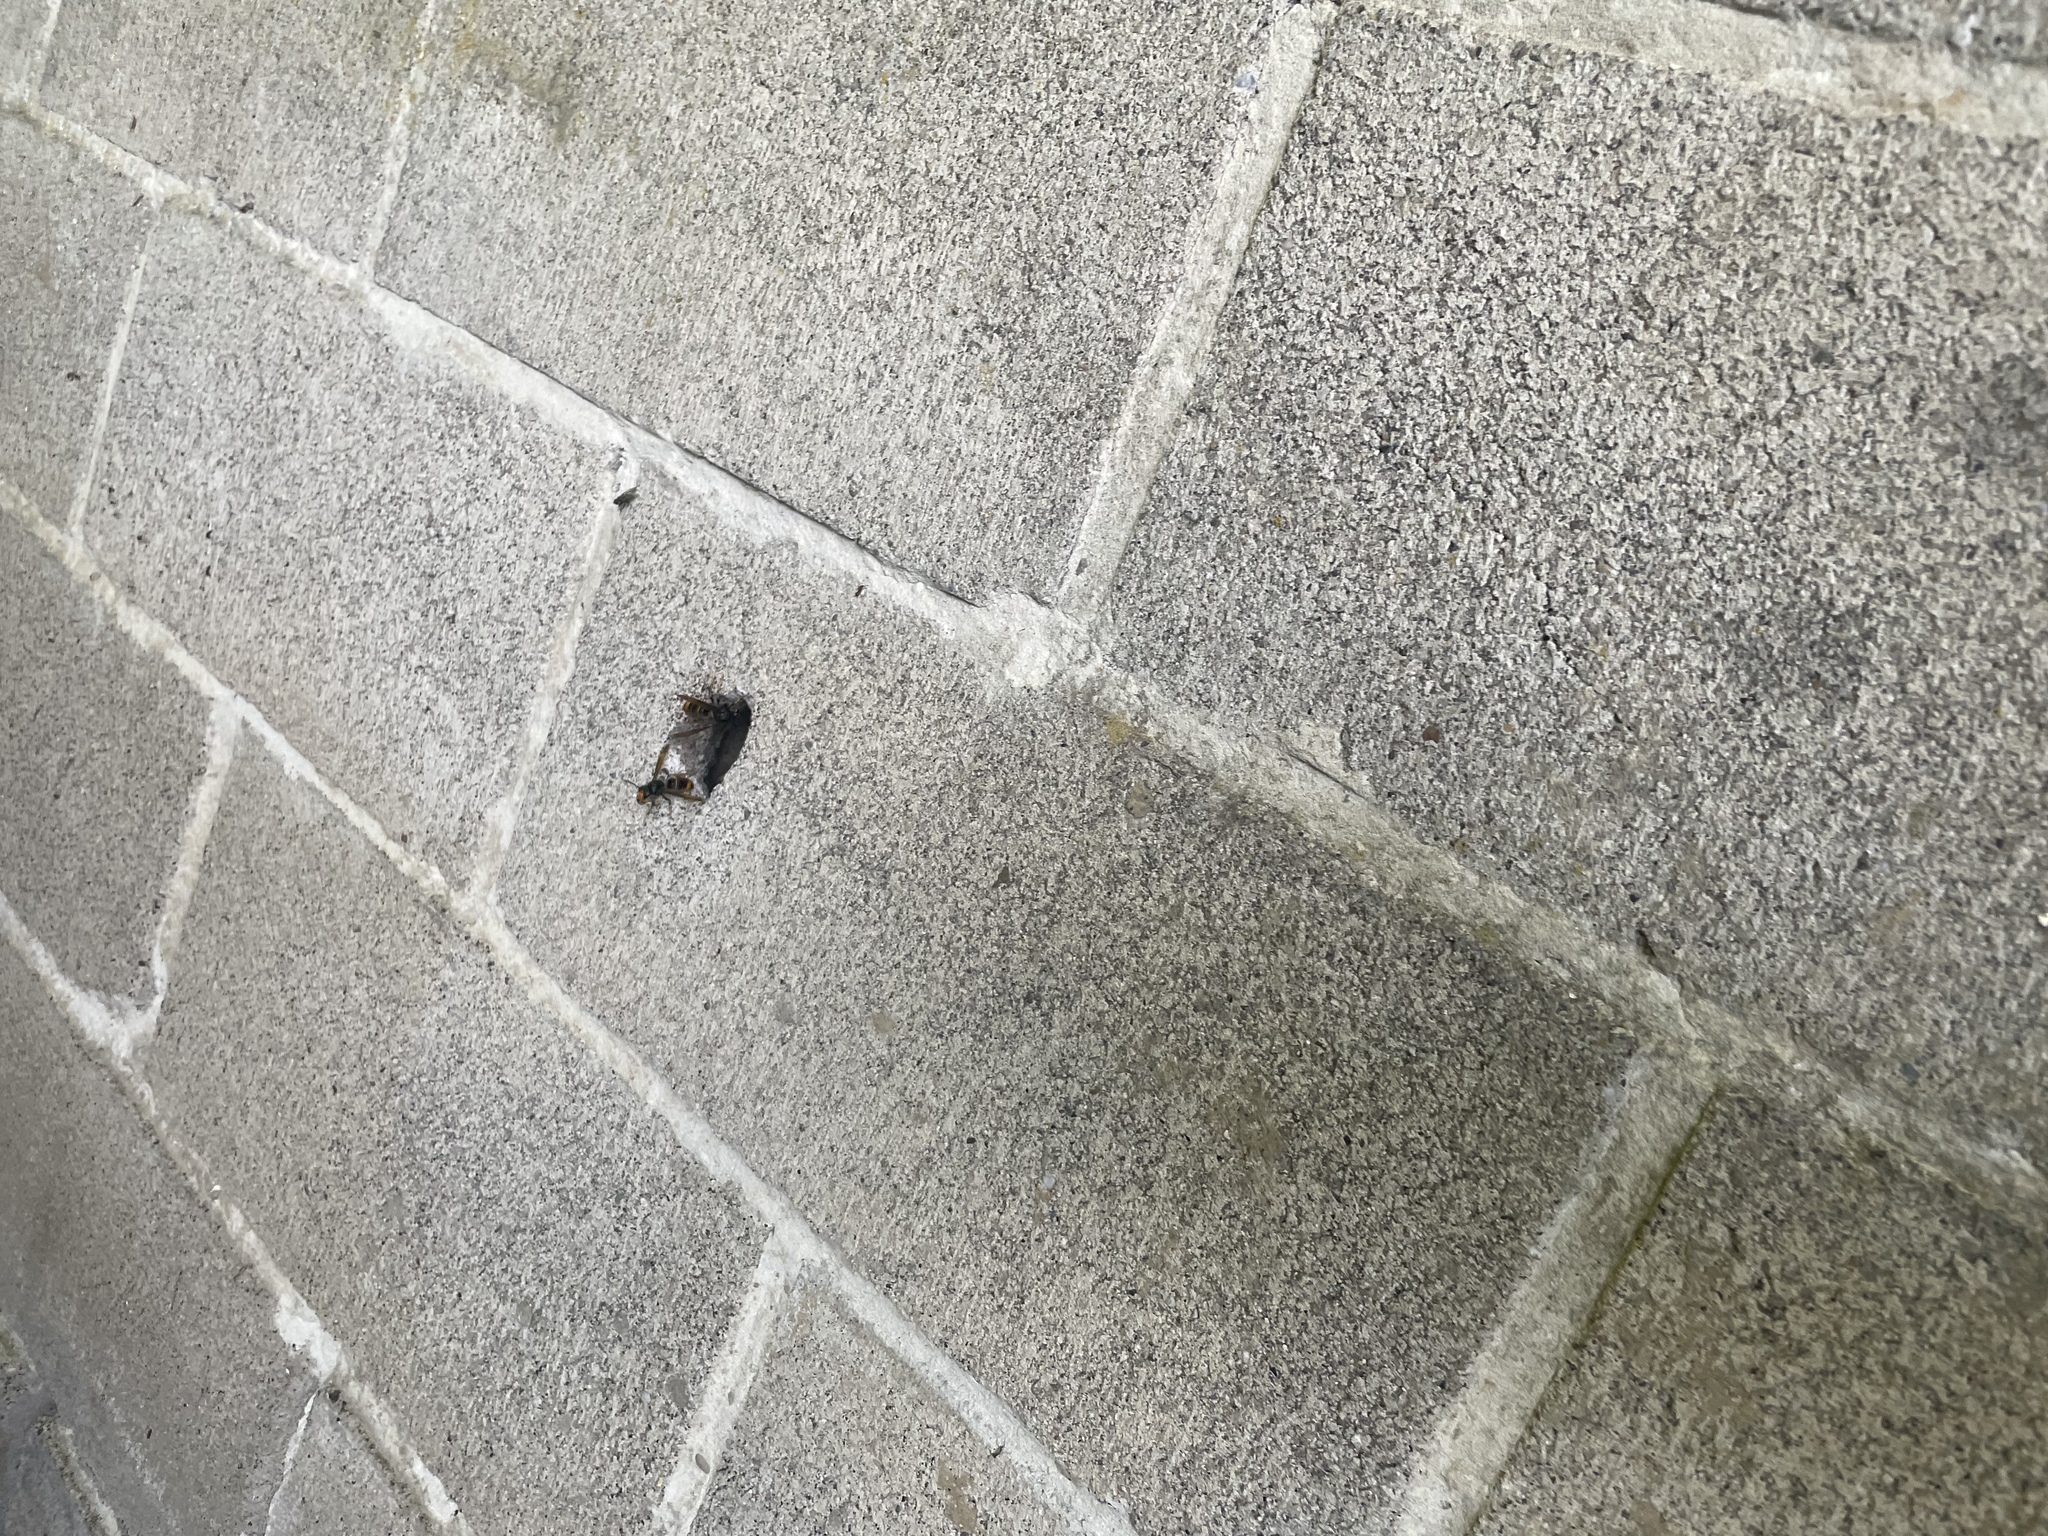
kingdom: Animalia
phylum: Arthropoda
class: Insecta
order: Hymenoptera
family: Vespidae
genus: Vespa
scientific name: Vespa velutina
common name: Asian hornet
